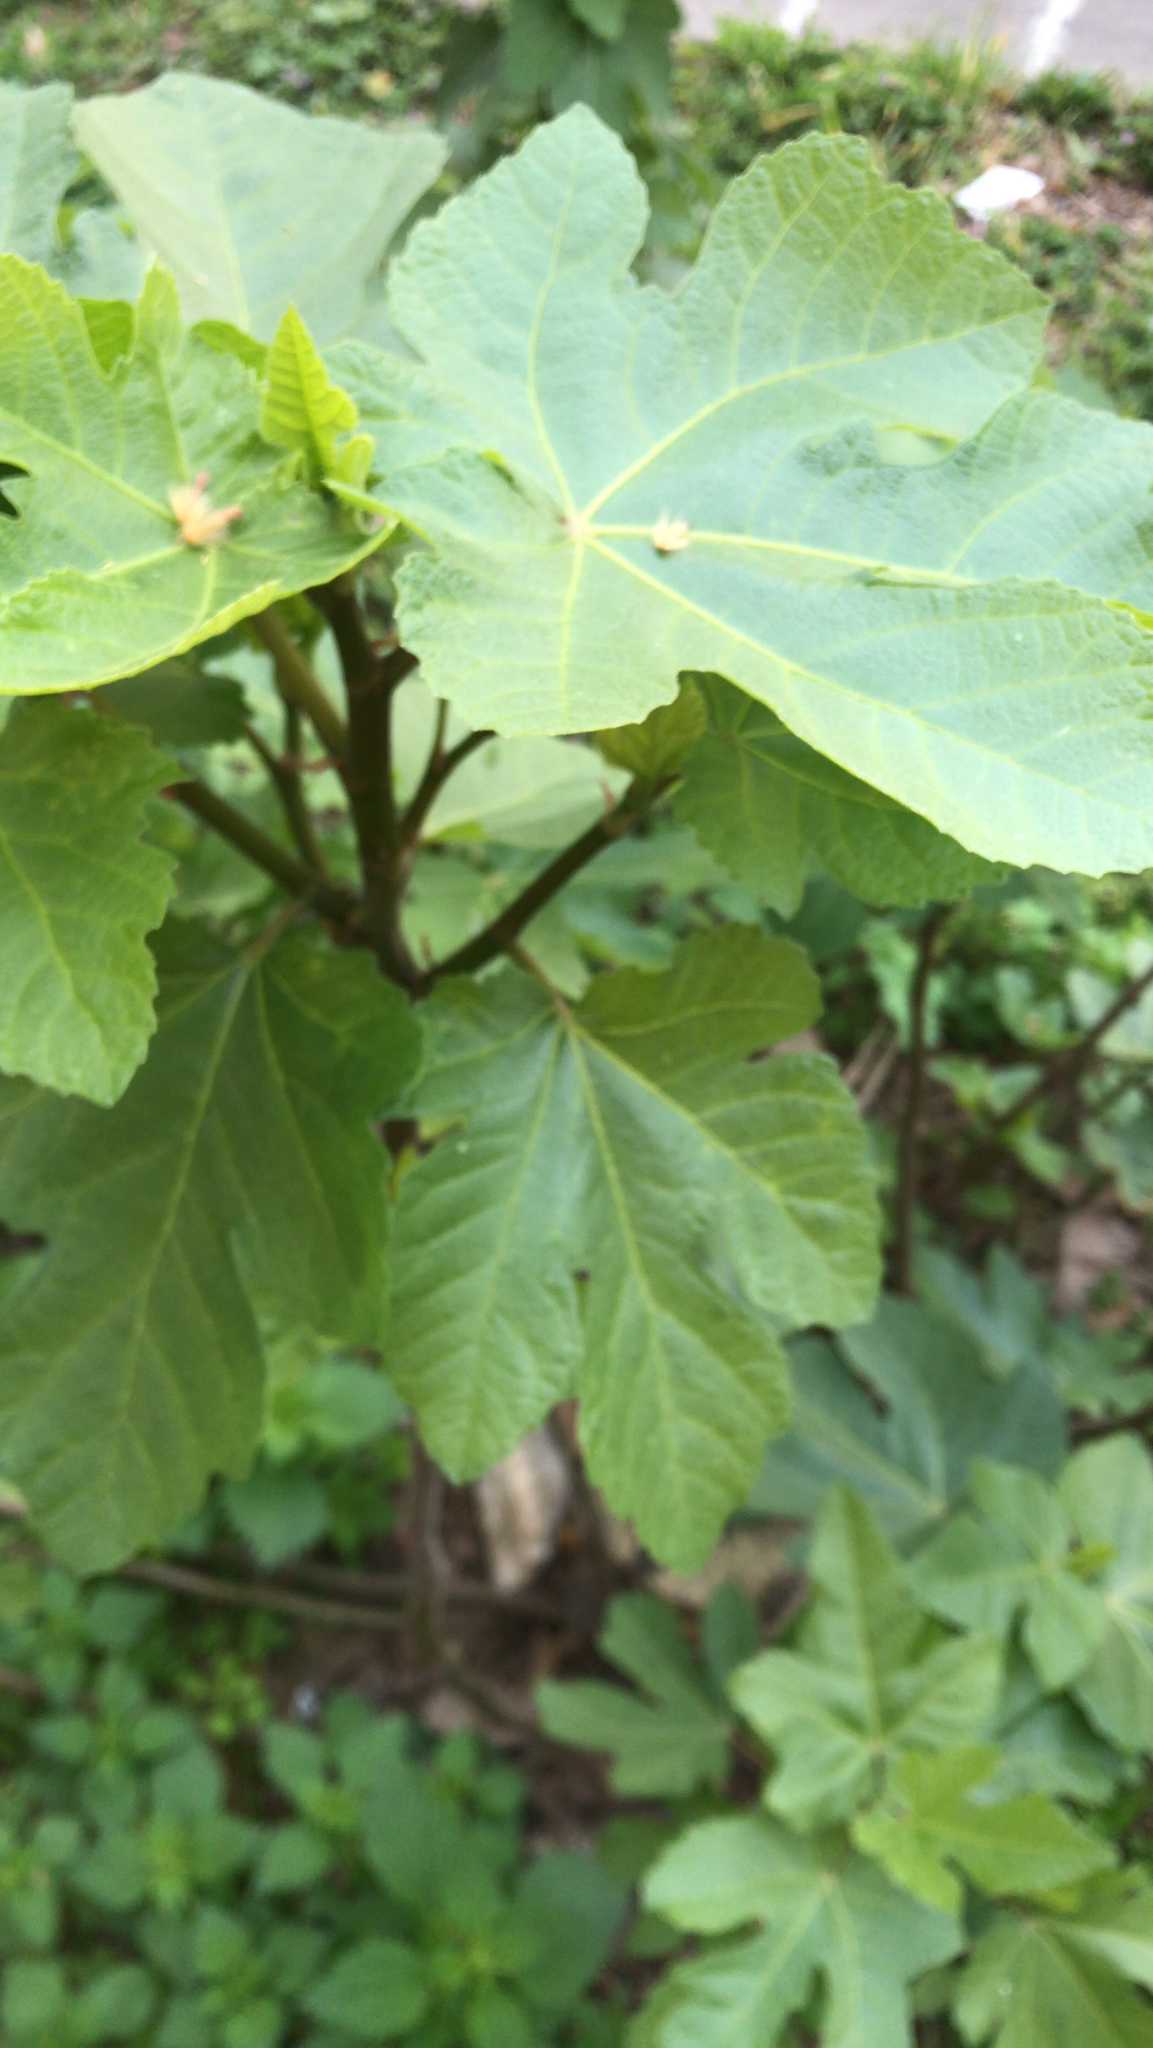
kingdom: Plantae
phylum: Tracheophyta
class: Magnoliopsida
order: Rosales
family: Moraceae
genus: Ficus
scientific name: Ficus carica
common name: Fig
